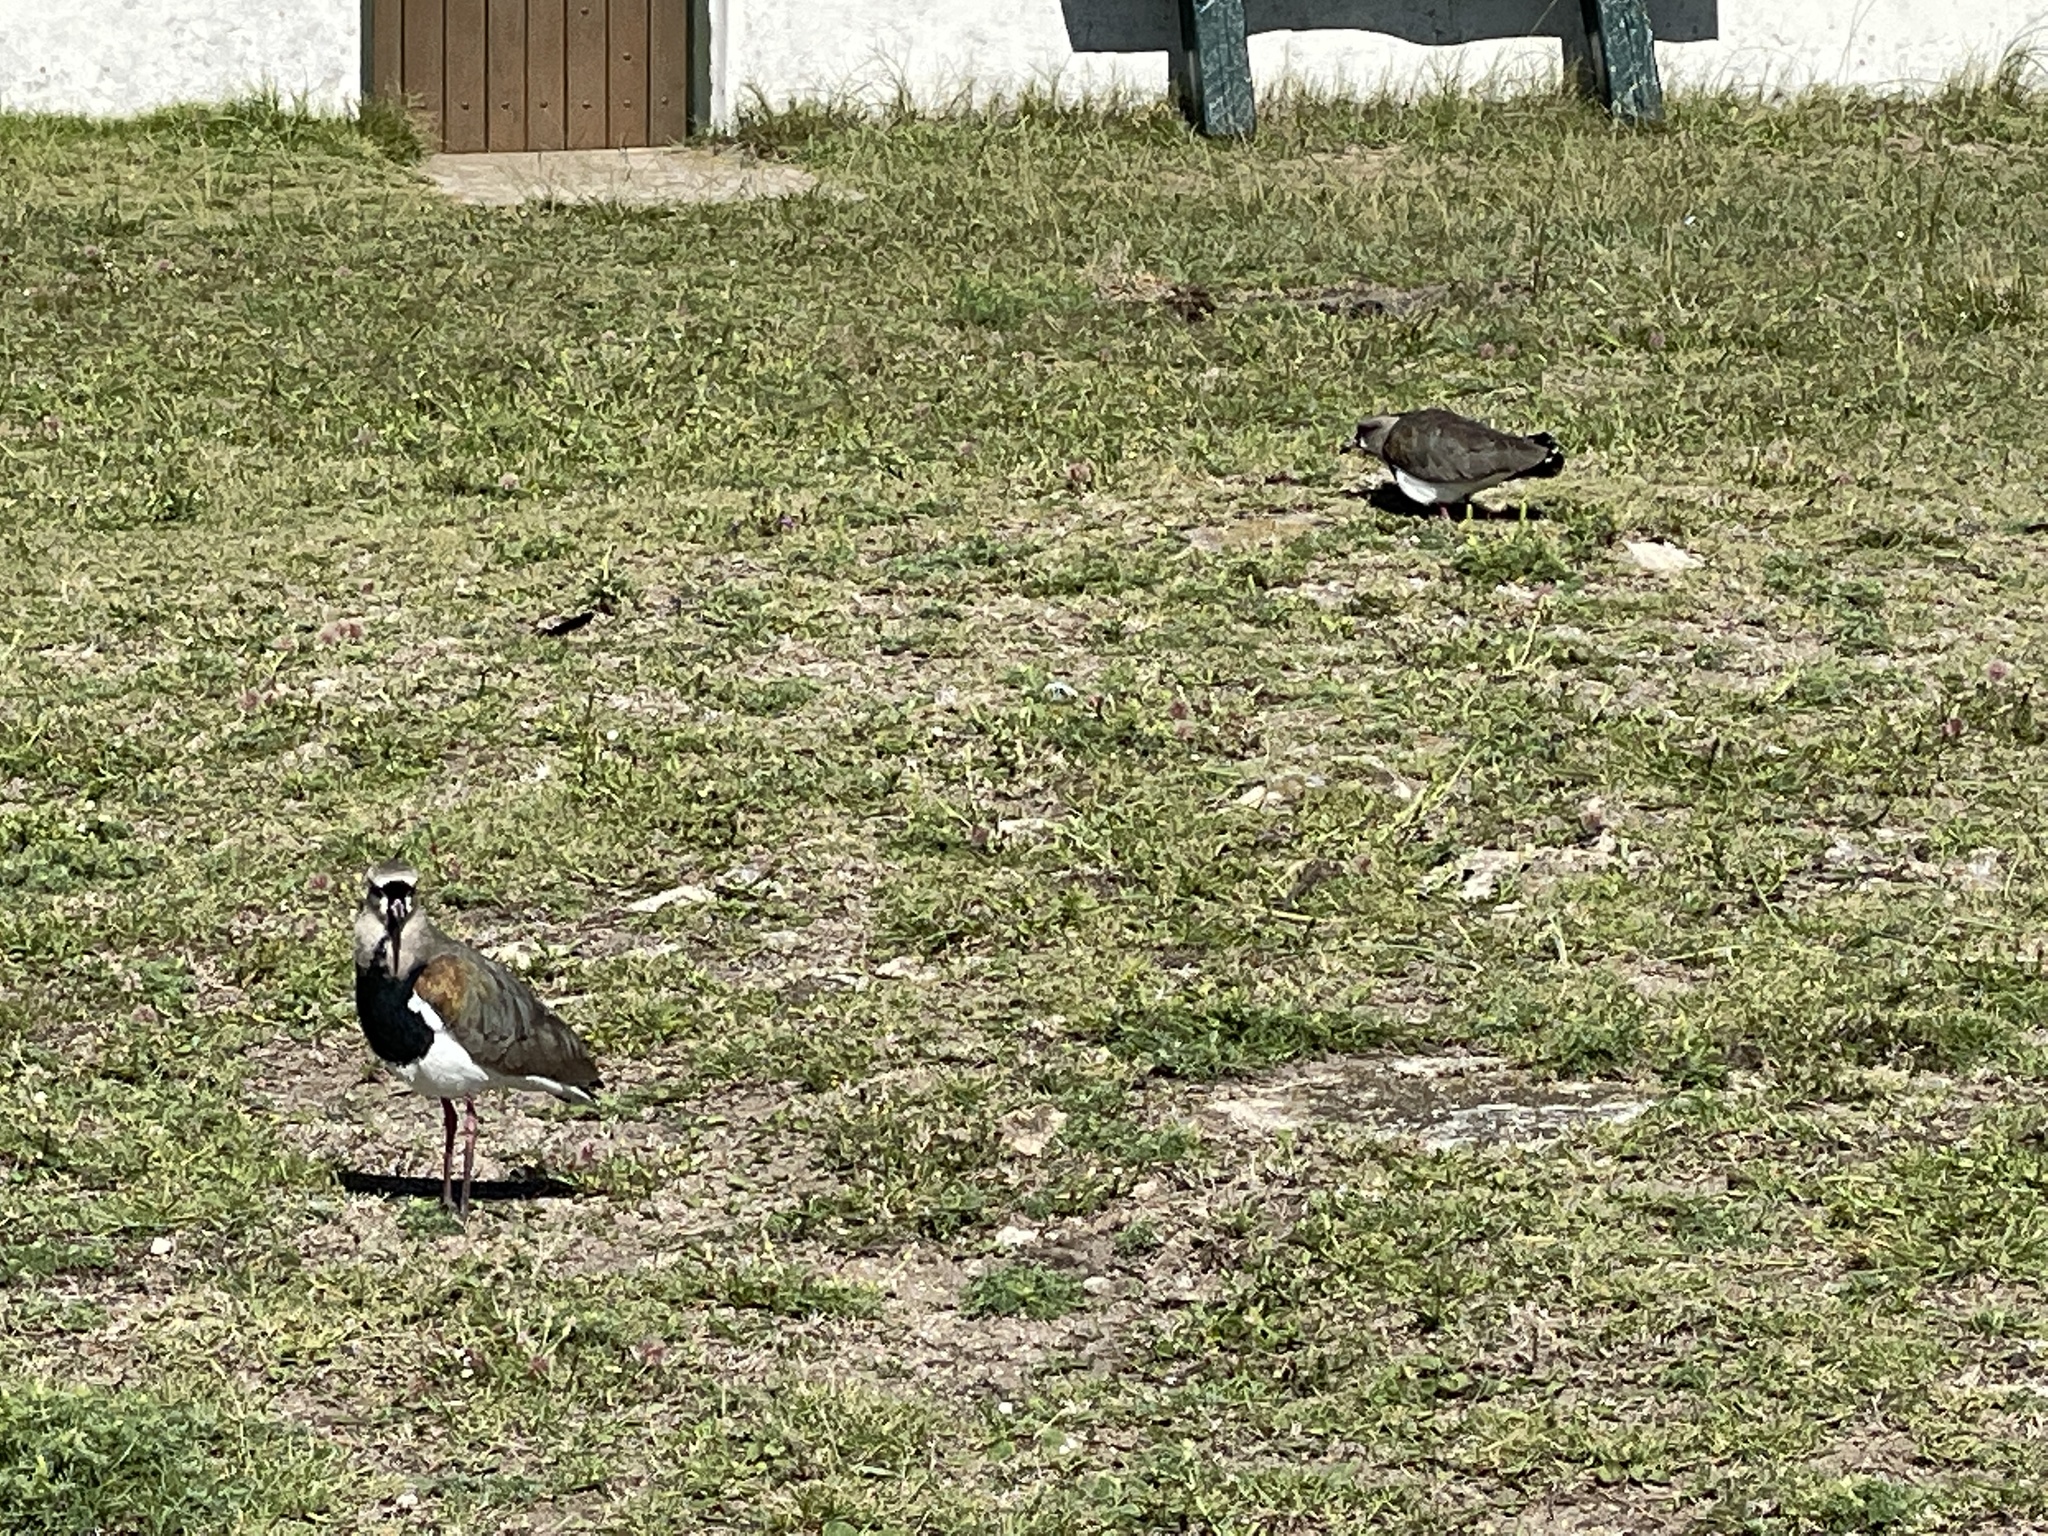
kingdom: Animalia
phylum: Chordata
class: Aves
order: Charadriiformes
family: Charadriidae
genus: Vanellus
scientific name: Vanellus chilensis
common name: Southern lapwing
